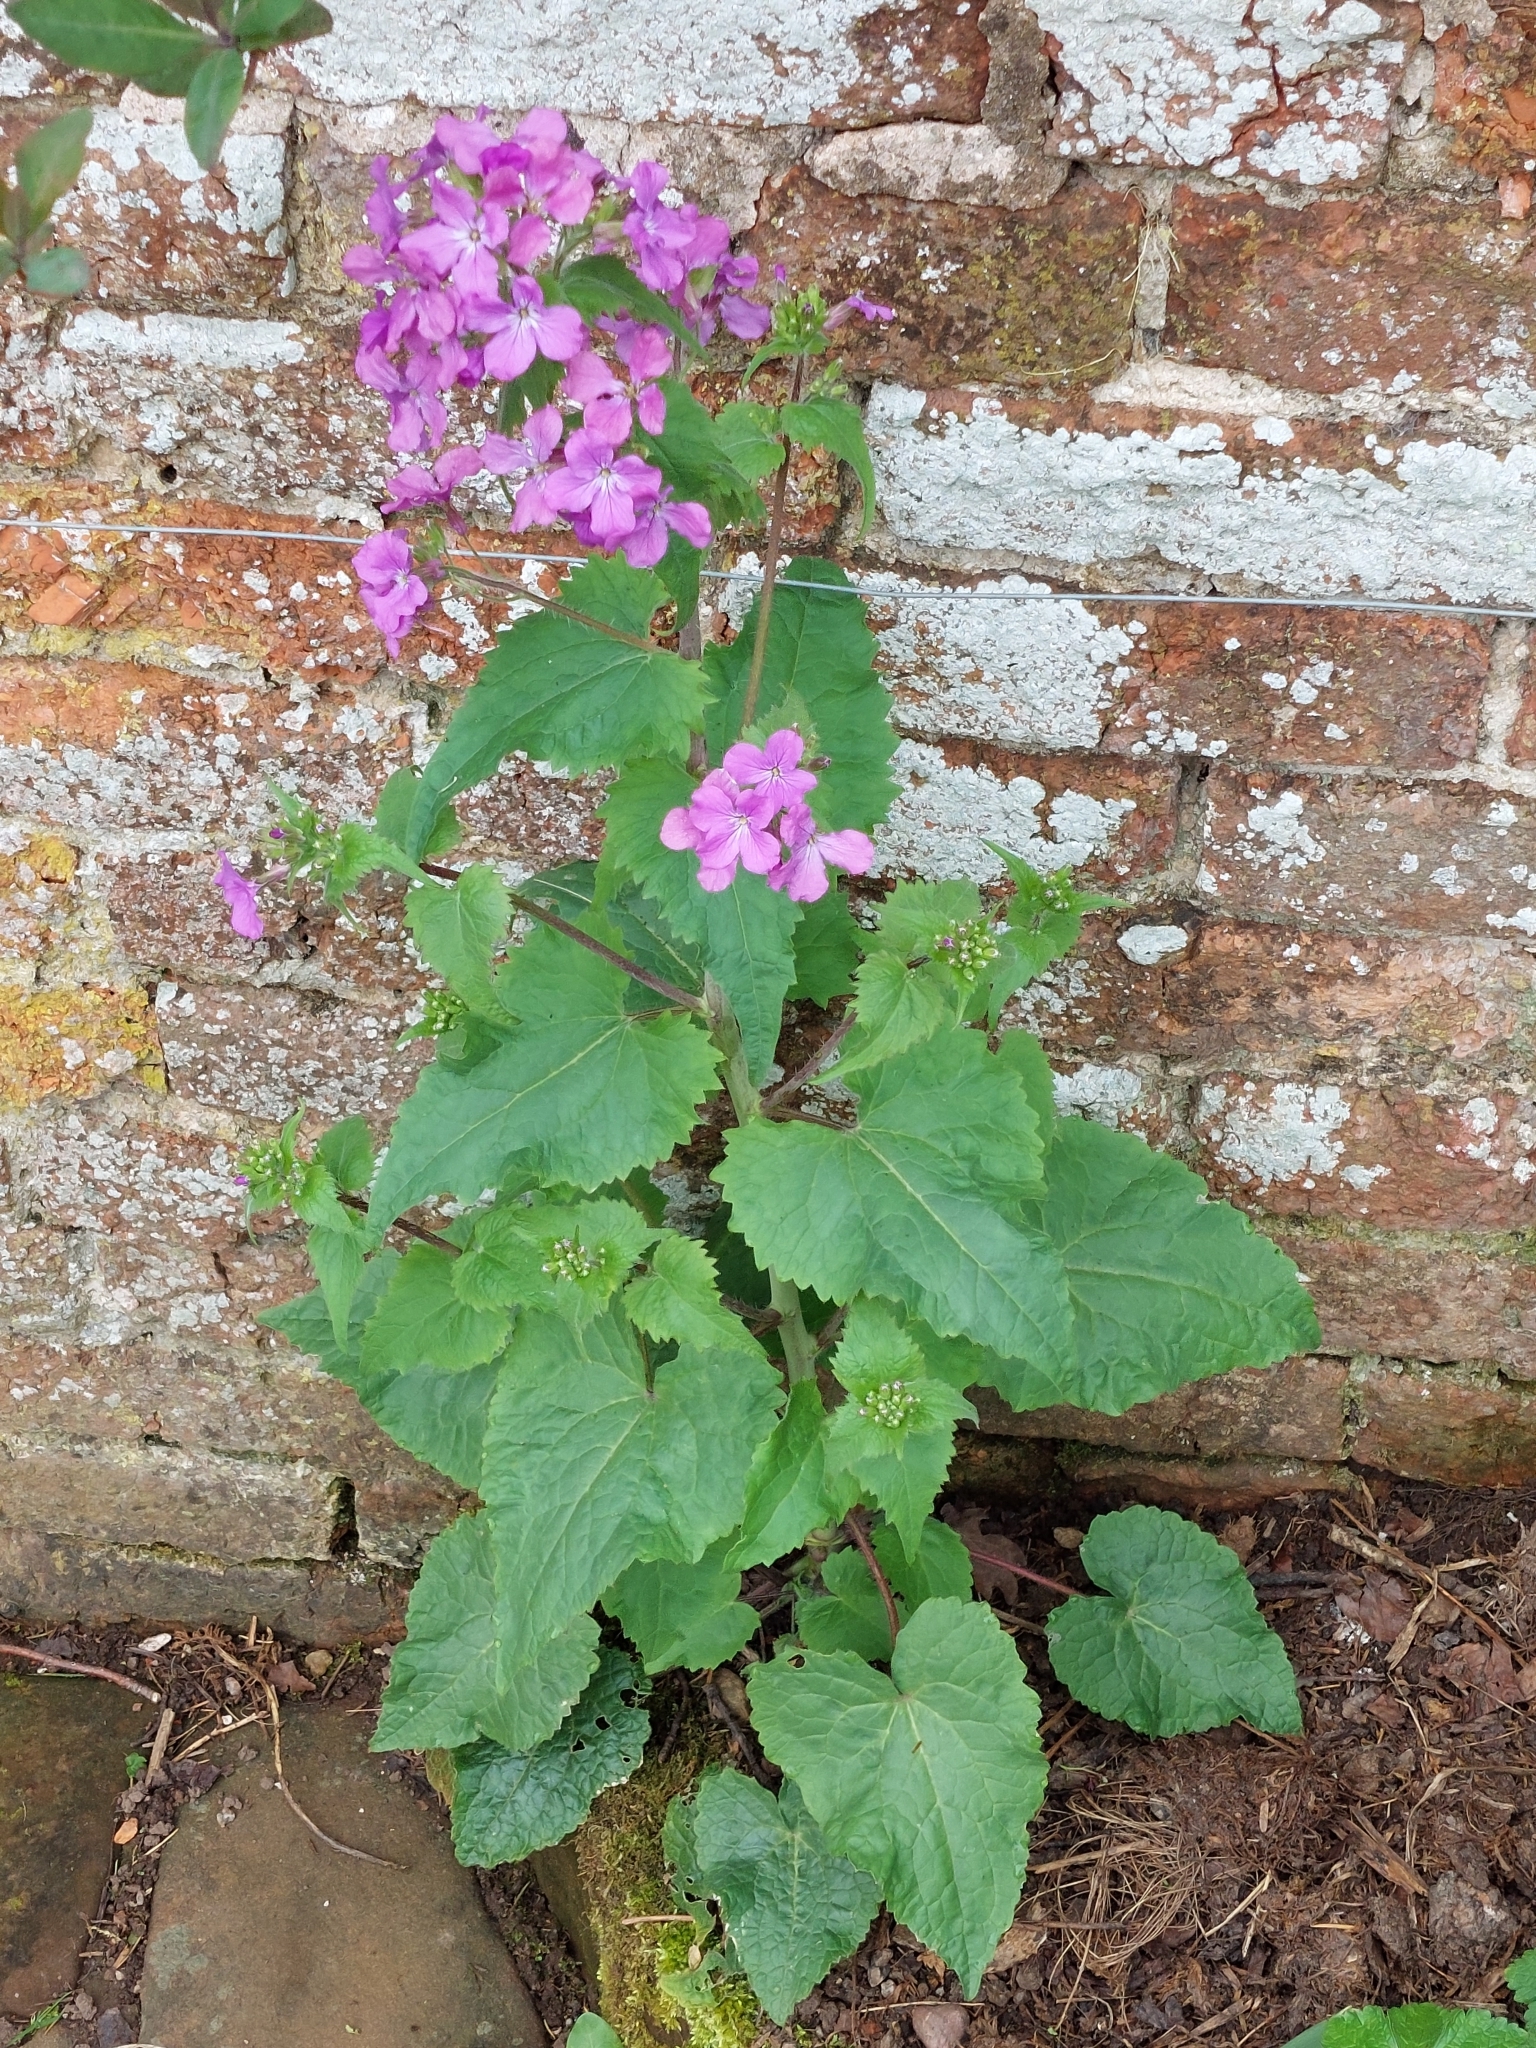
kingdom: Plantae
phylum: Tracheophyta
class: Magnoliopsida
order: Brassicales
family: Brassicaceae
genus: Lunaria
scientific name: Lunaria annua
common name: Honesty
